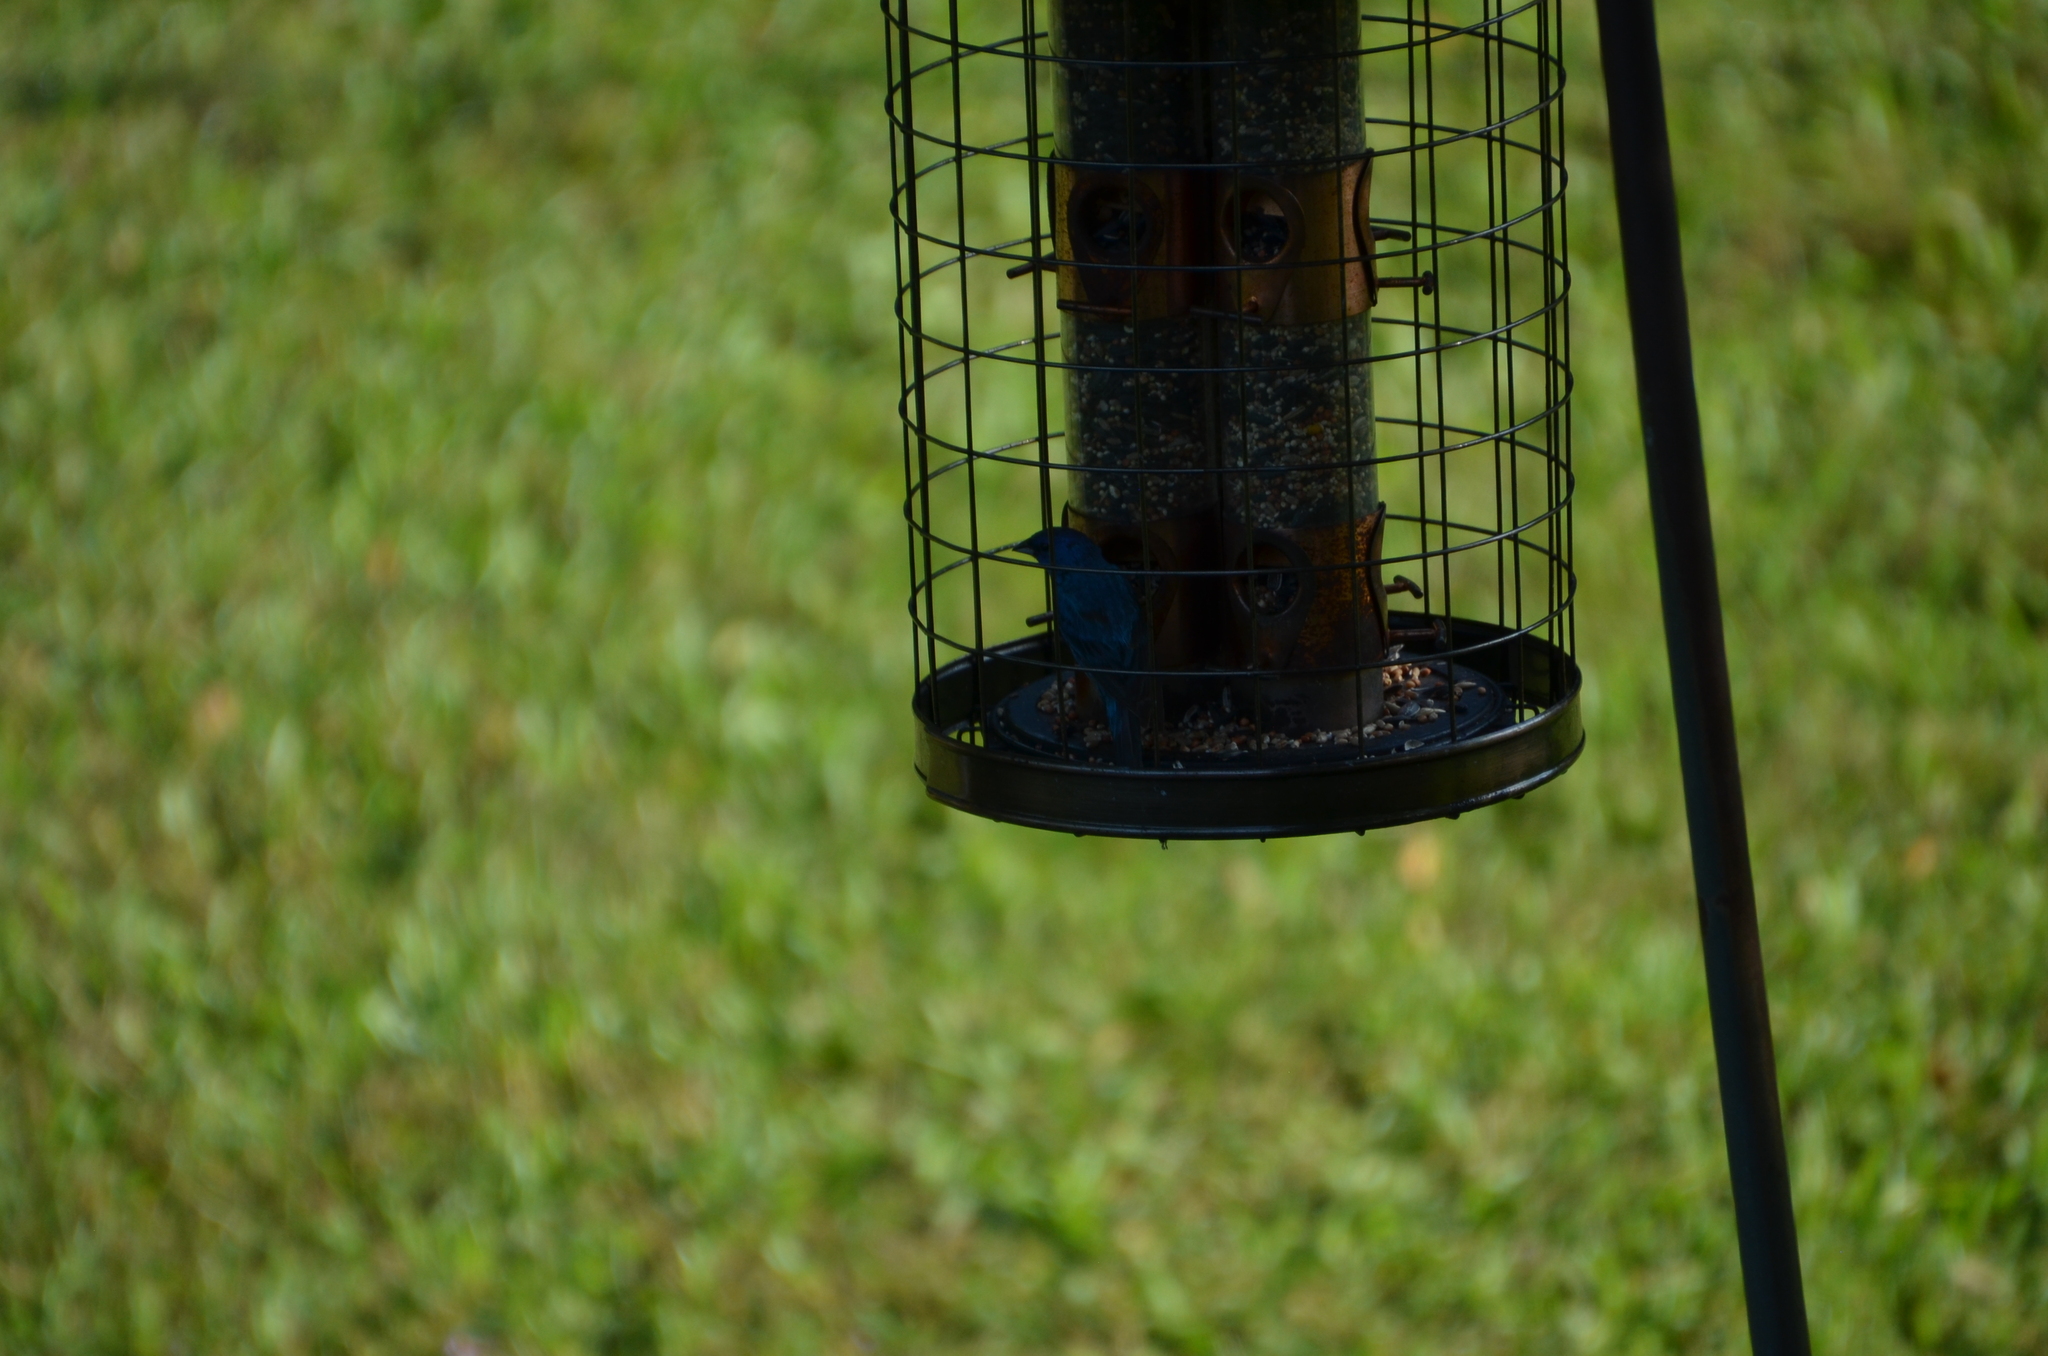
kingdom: Animalia
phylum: Chordata
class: Aves
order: Passeriformes
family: Cardinalidae
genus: Passerina
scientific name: Passerina cyanea
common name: Indigo bunting
